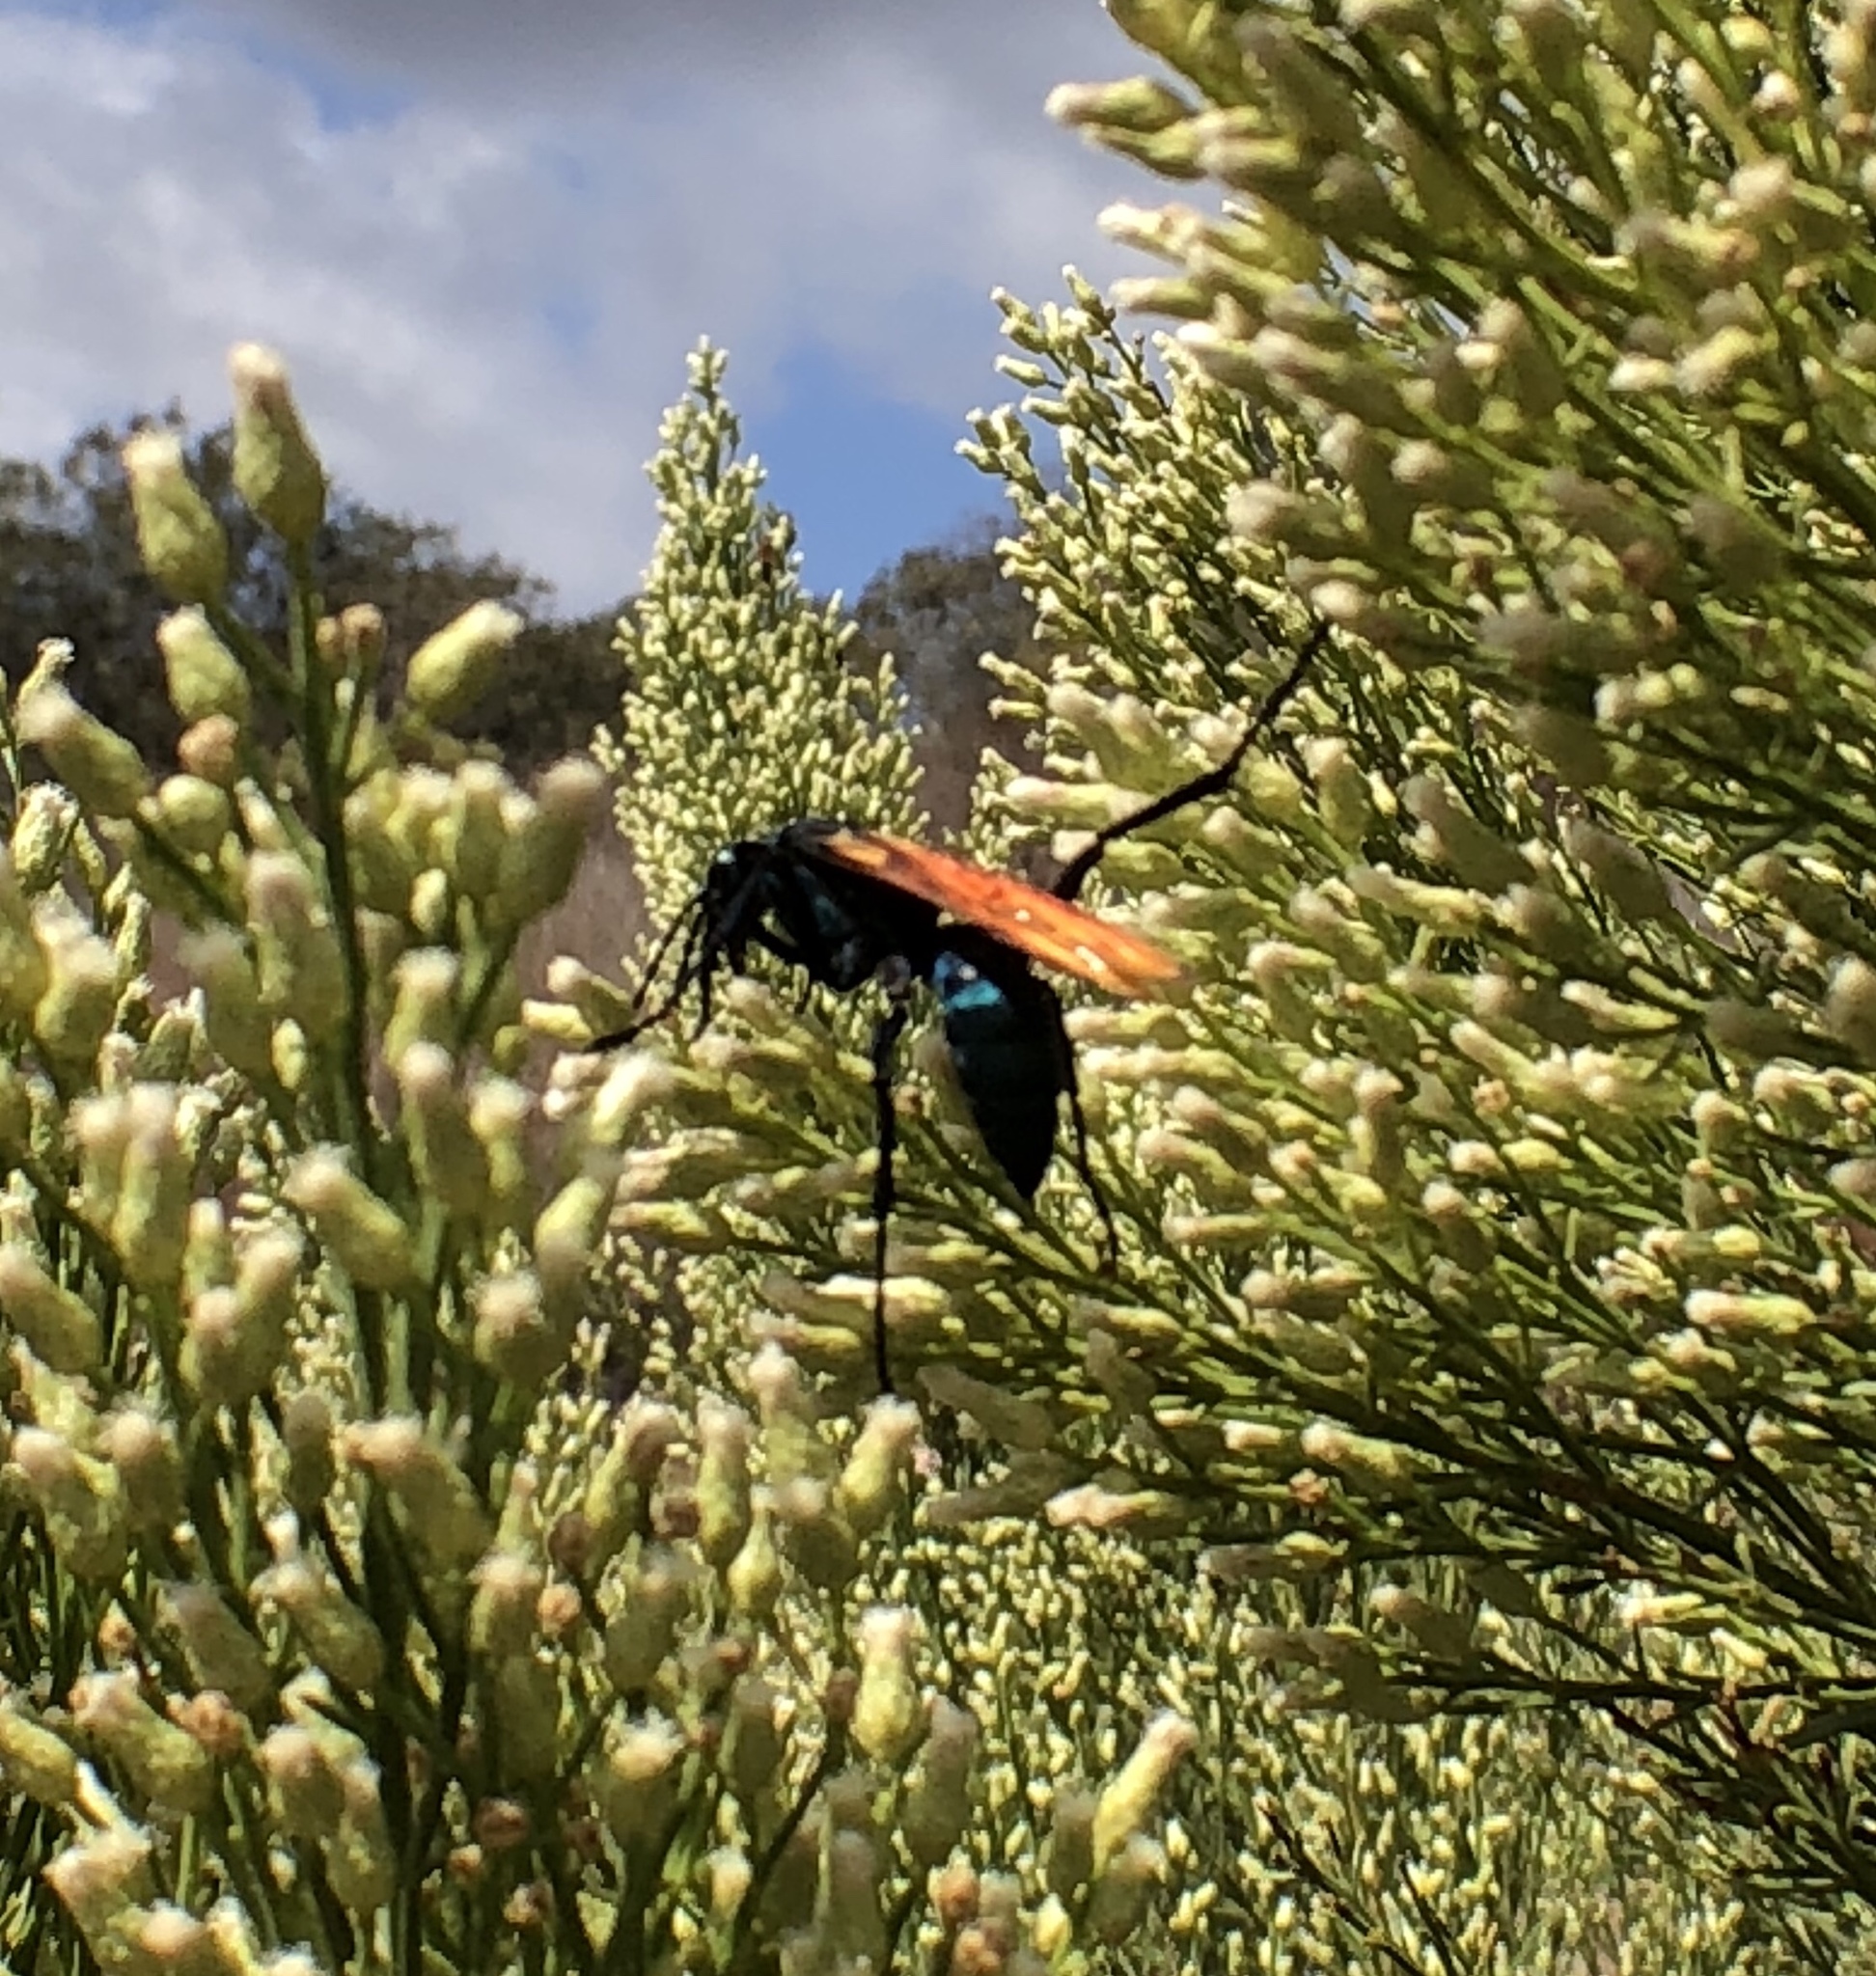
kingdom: Animalia
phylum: Arthropoda
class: Insecta
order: Hymenoptera
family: Pompilidae
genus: Pepsis
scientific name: Pepsis thisbe
